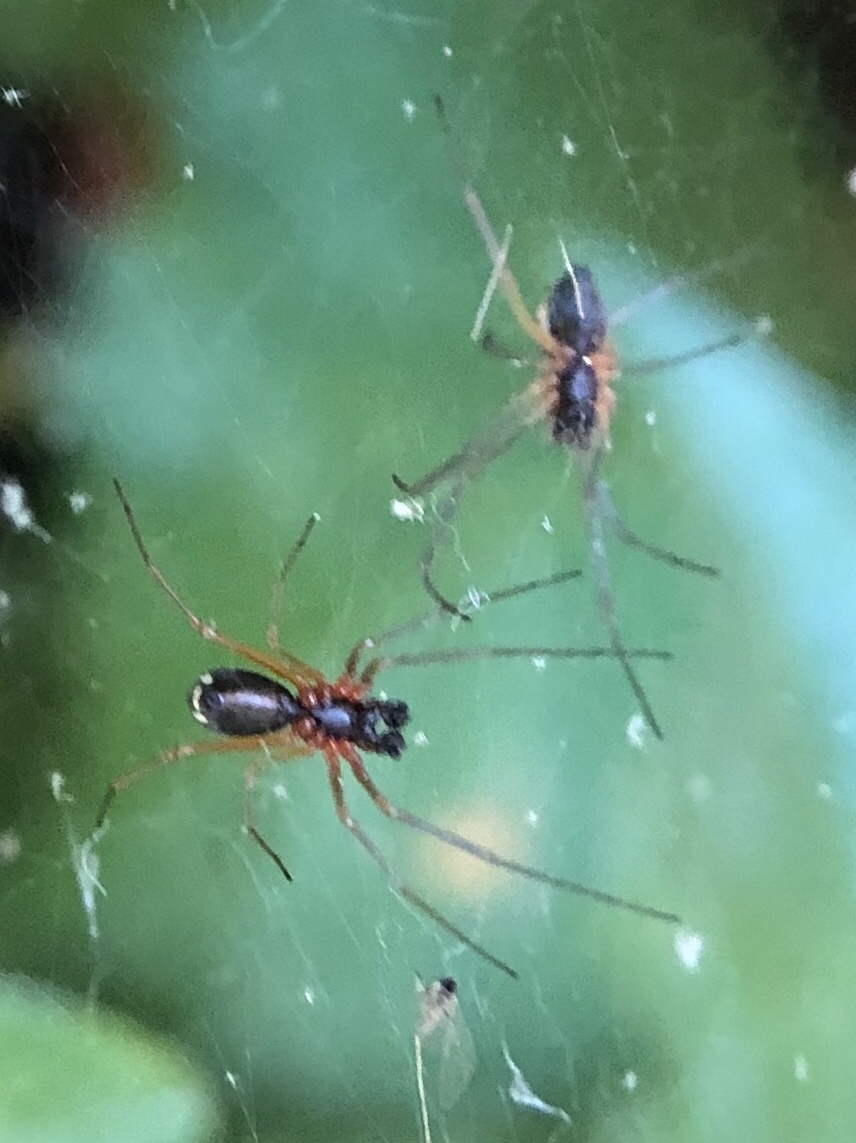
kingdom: Animalia
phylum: Arthropoda
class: Arachnida
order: Araneae
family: Linyphiidae
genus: Frontinellina
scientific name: Frontinellina frutetorum
